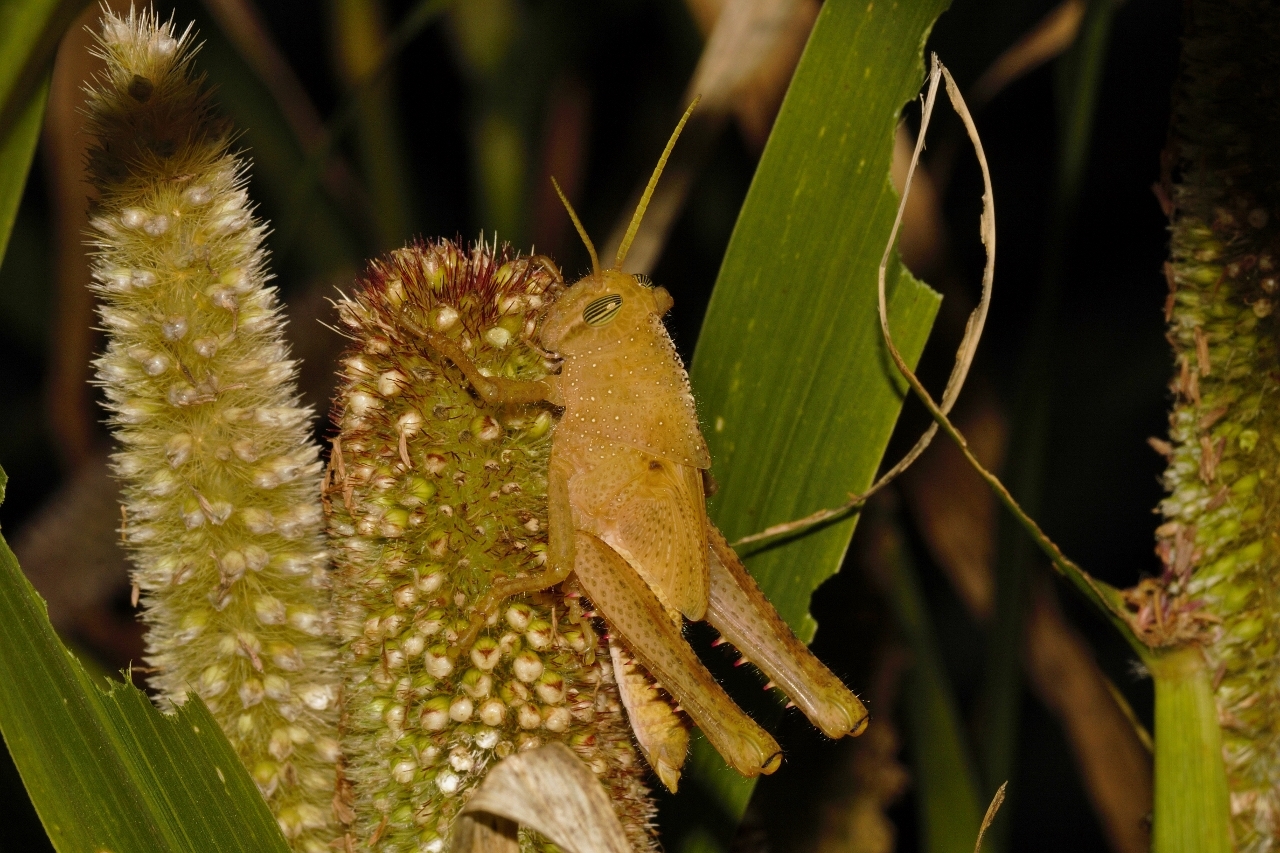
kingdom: Animalia
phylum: Arthropoda
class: Insecta
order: Orthoptera
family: Acrididae
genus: Acanthacris
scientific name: Acanthacris ruficornis
